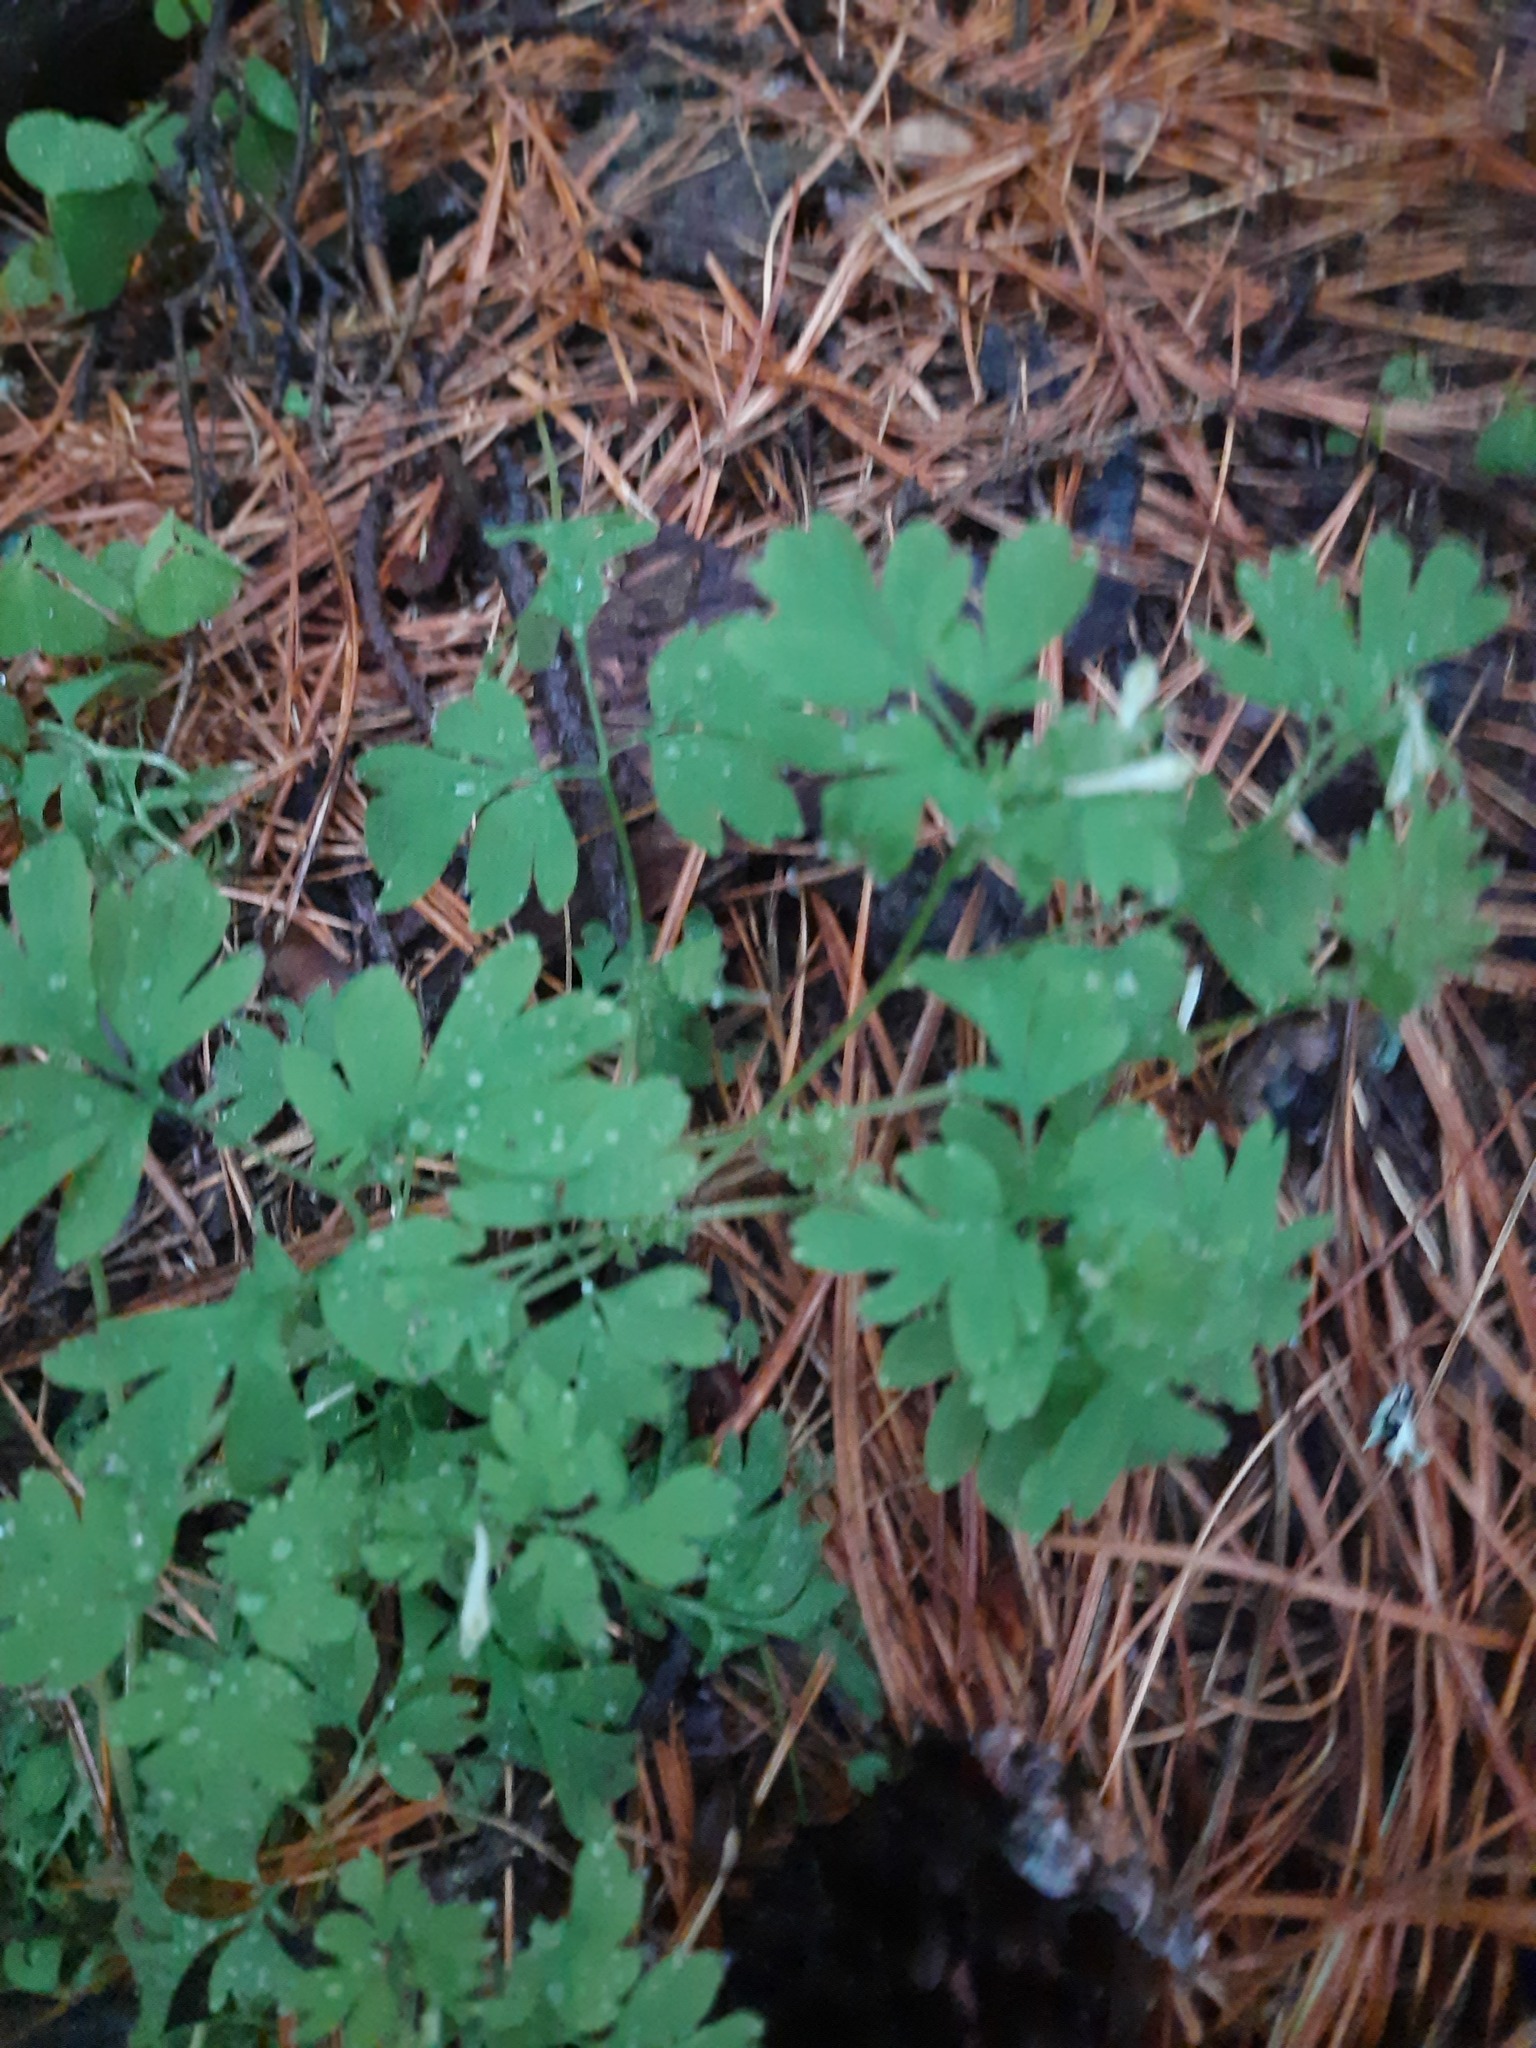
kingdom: Plantae
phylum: Tracheophyta
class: Magnoliopsida
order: Dipsacales
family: Viburnaceae
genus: Adoxa
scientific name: Adoxa moschatellina
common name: Moschatel
